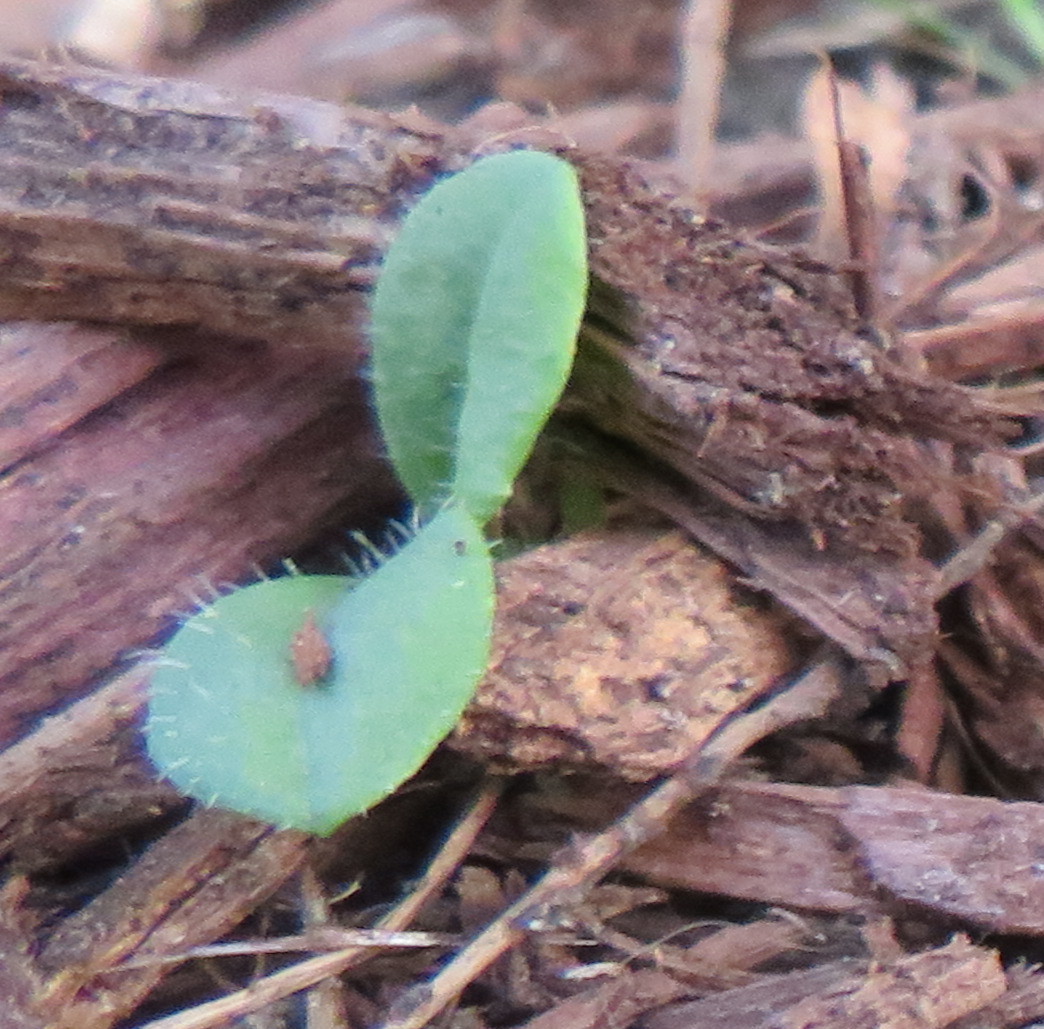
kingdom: Plantae
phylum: Tracheophyta
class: Magnoliopsida
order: Asterales
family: Asteraceae
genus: Helminthotheca
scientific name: Helminthotheca echioides
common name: Ox-tongue
